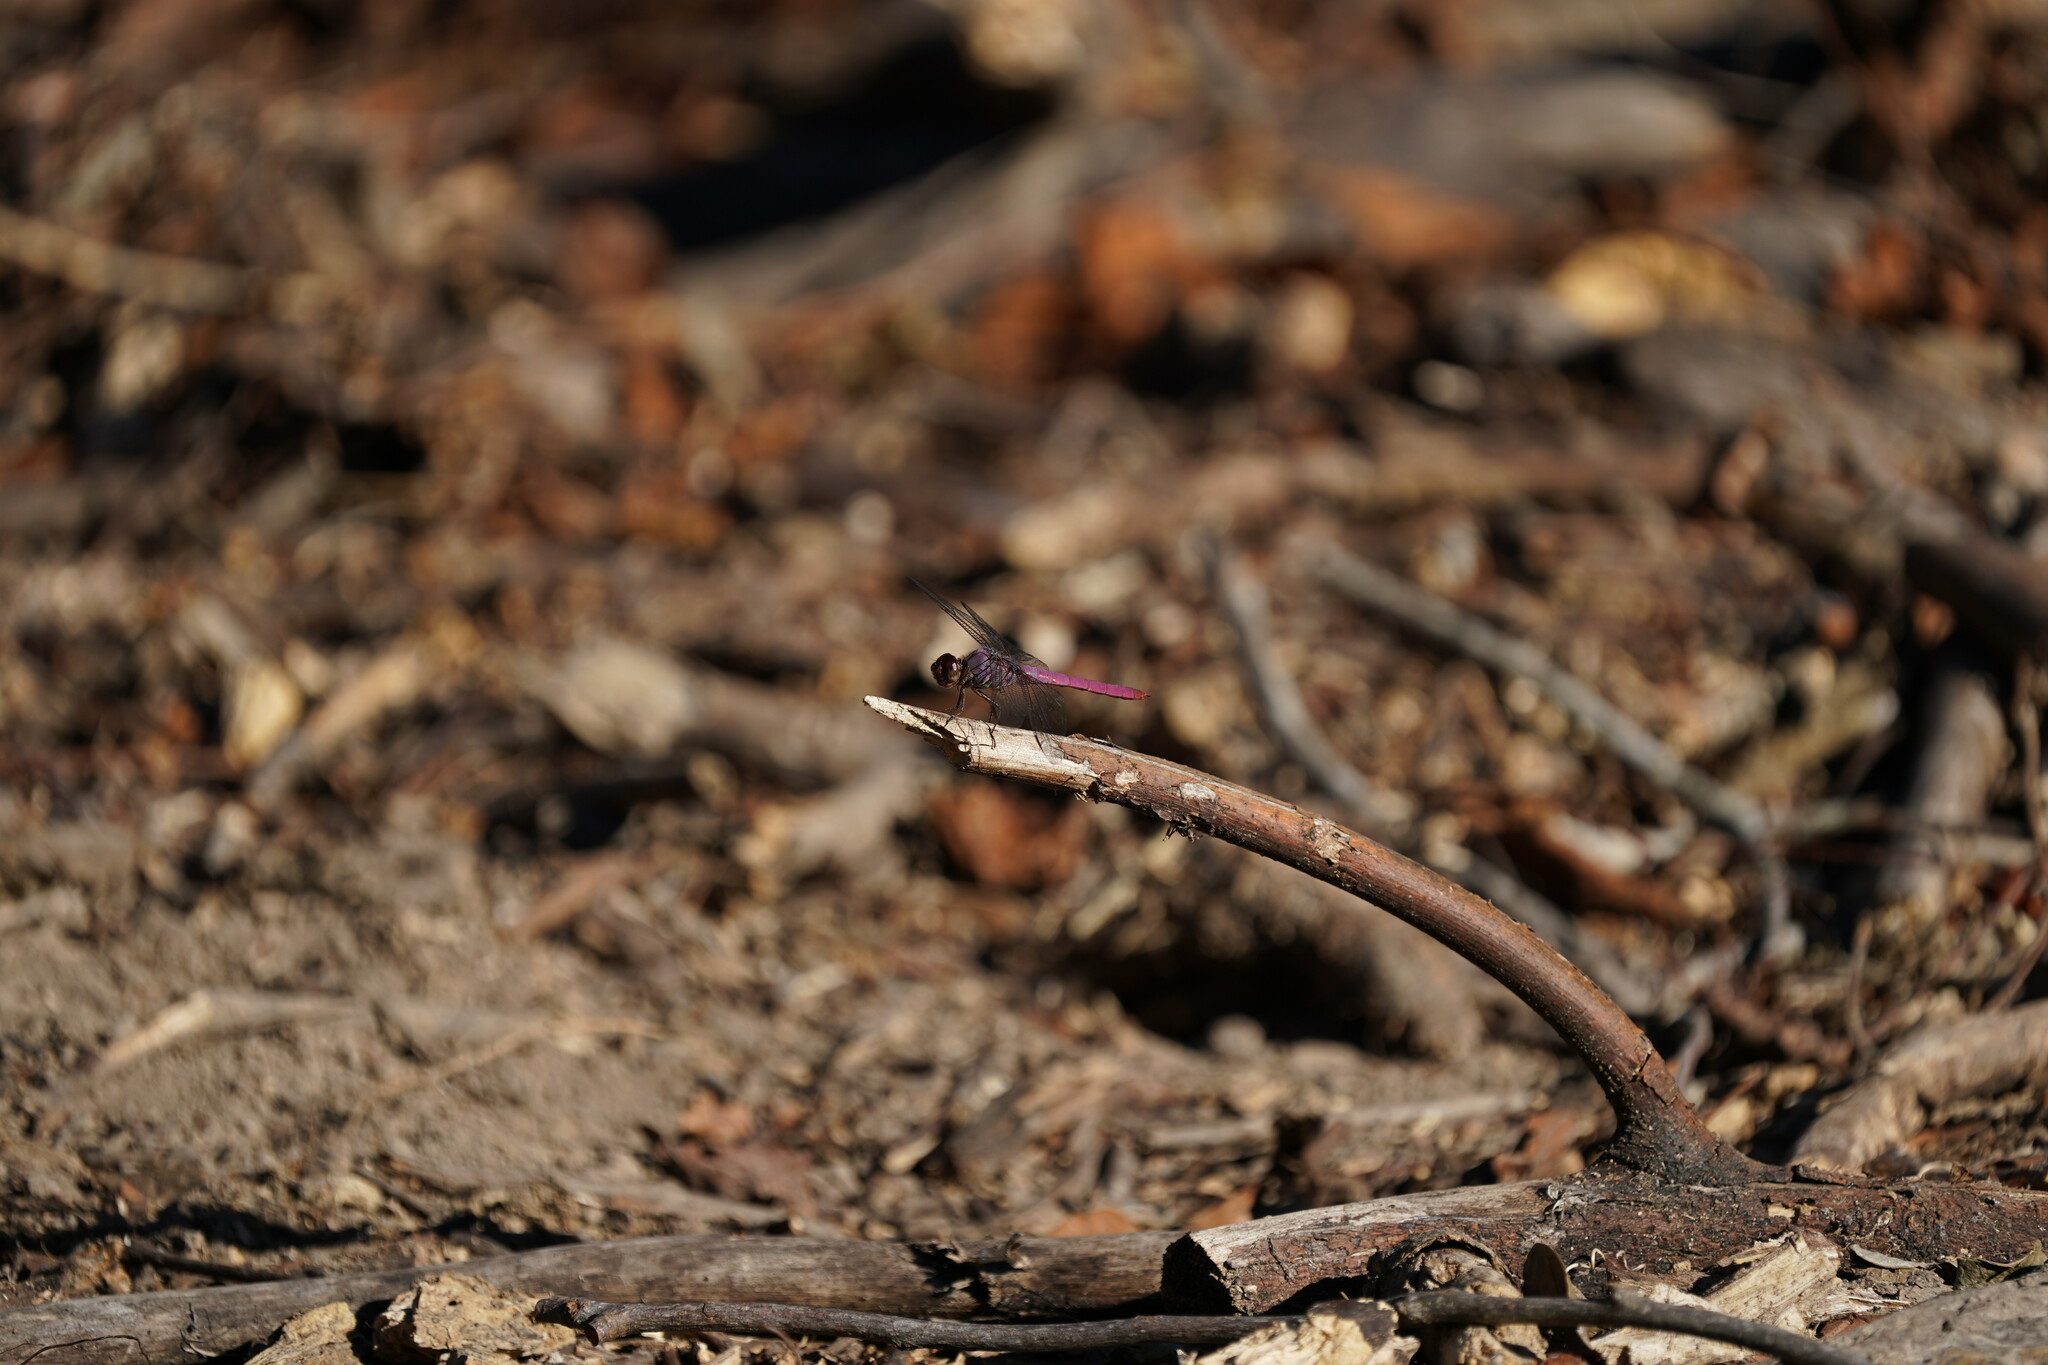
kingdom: Animalia
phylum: Arthropoda
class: Insecta
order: Odonata
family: Libellulidae
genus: Orthemis
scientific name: Orthemis ferruginea
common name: Roseate skimmer
